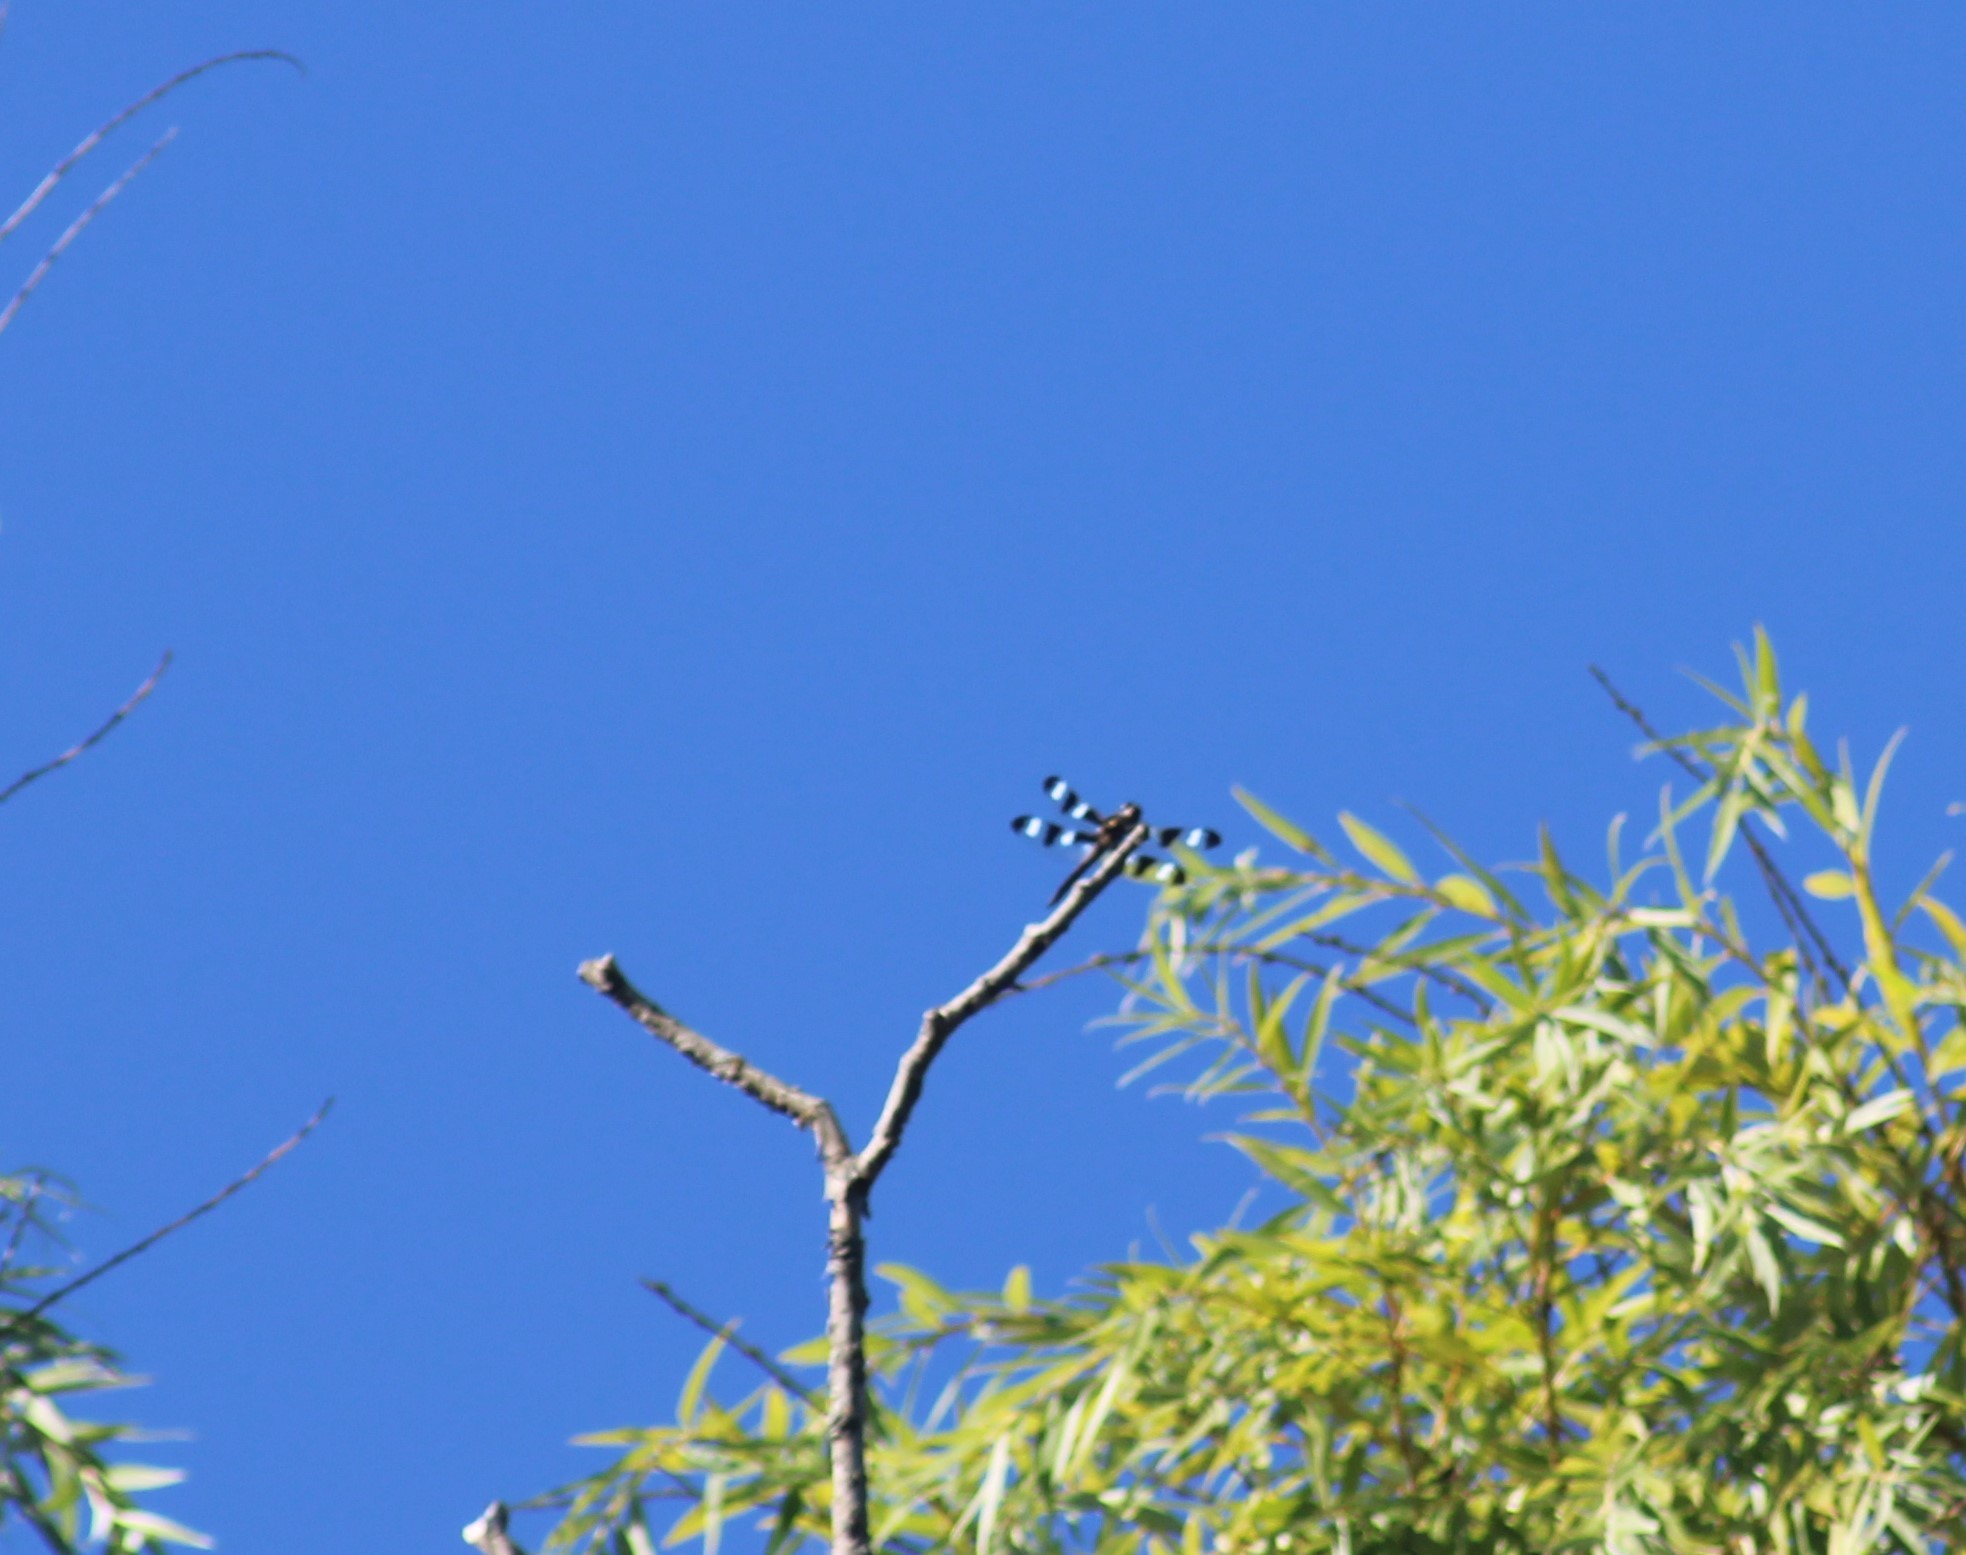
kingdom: Animalia
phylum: Arthropoda
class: Insecta
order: Odonata
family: Libellulidae
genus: Libellula
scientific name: Libellula pulchella
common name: Twelve-spotted skimmer
